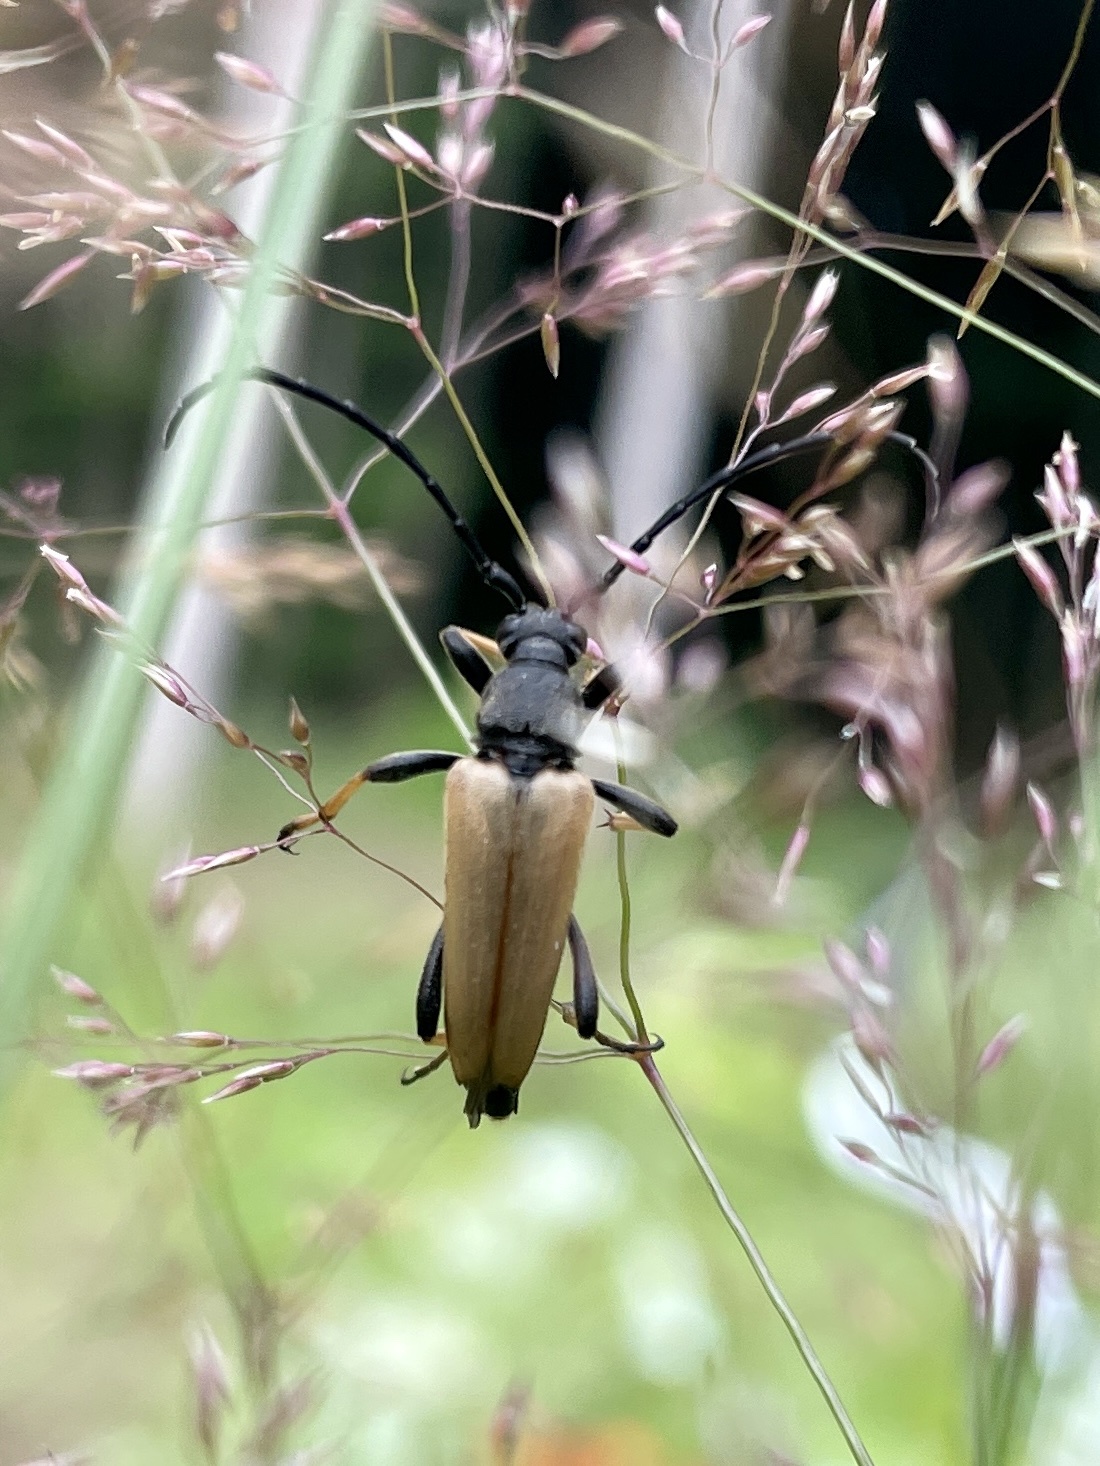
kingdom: Animalia
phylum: Arthropoda
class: Insecta
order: Coleoptera
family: Cerambycidae
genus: Stictoleptura
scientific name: Stictoleptura rubra
